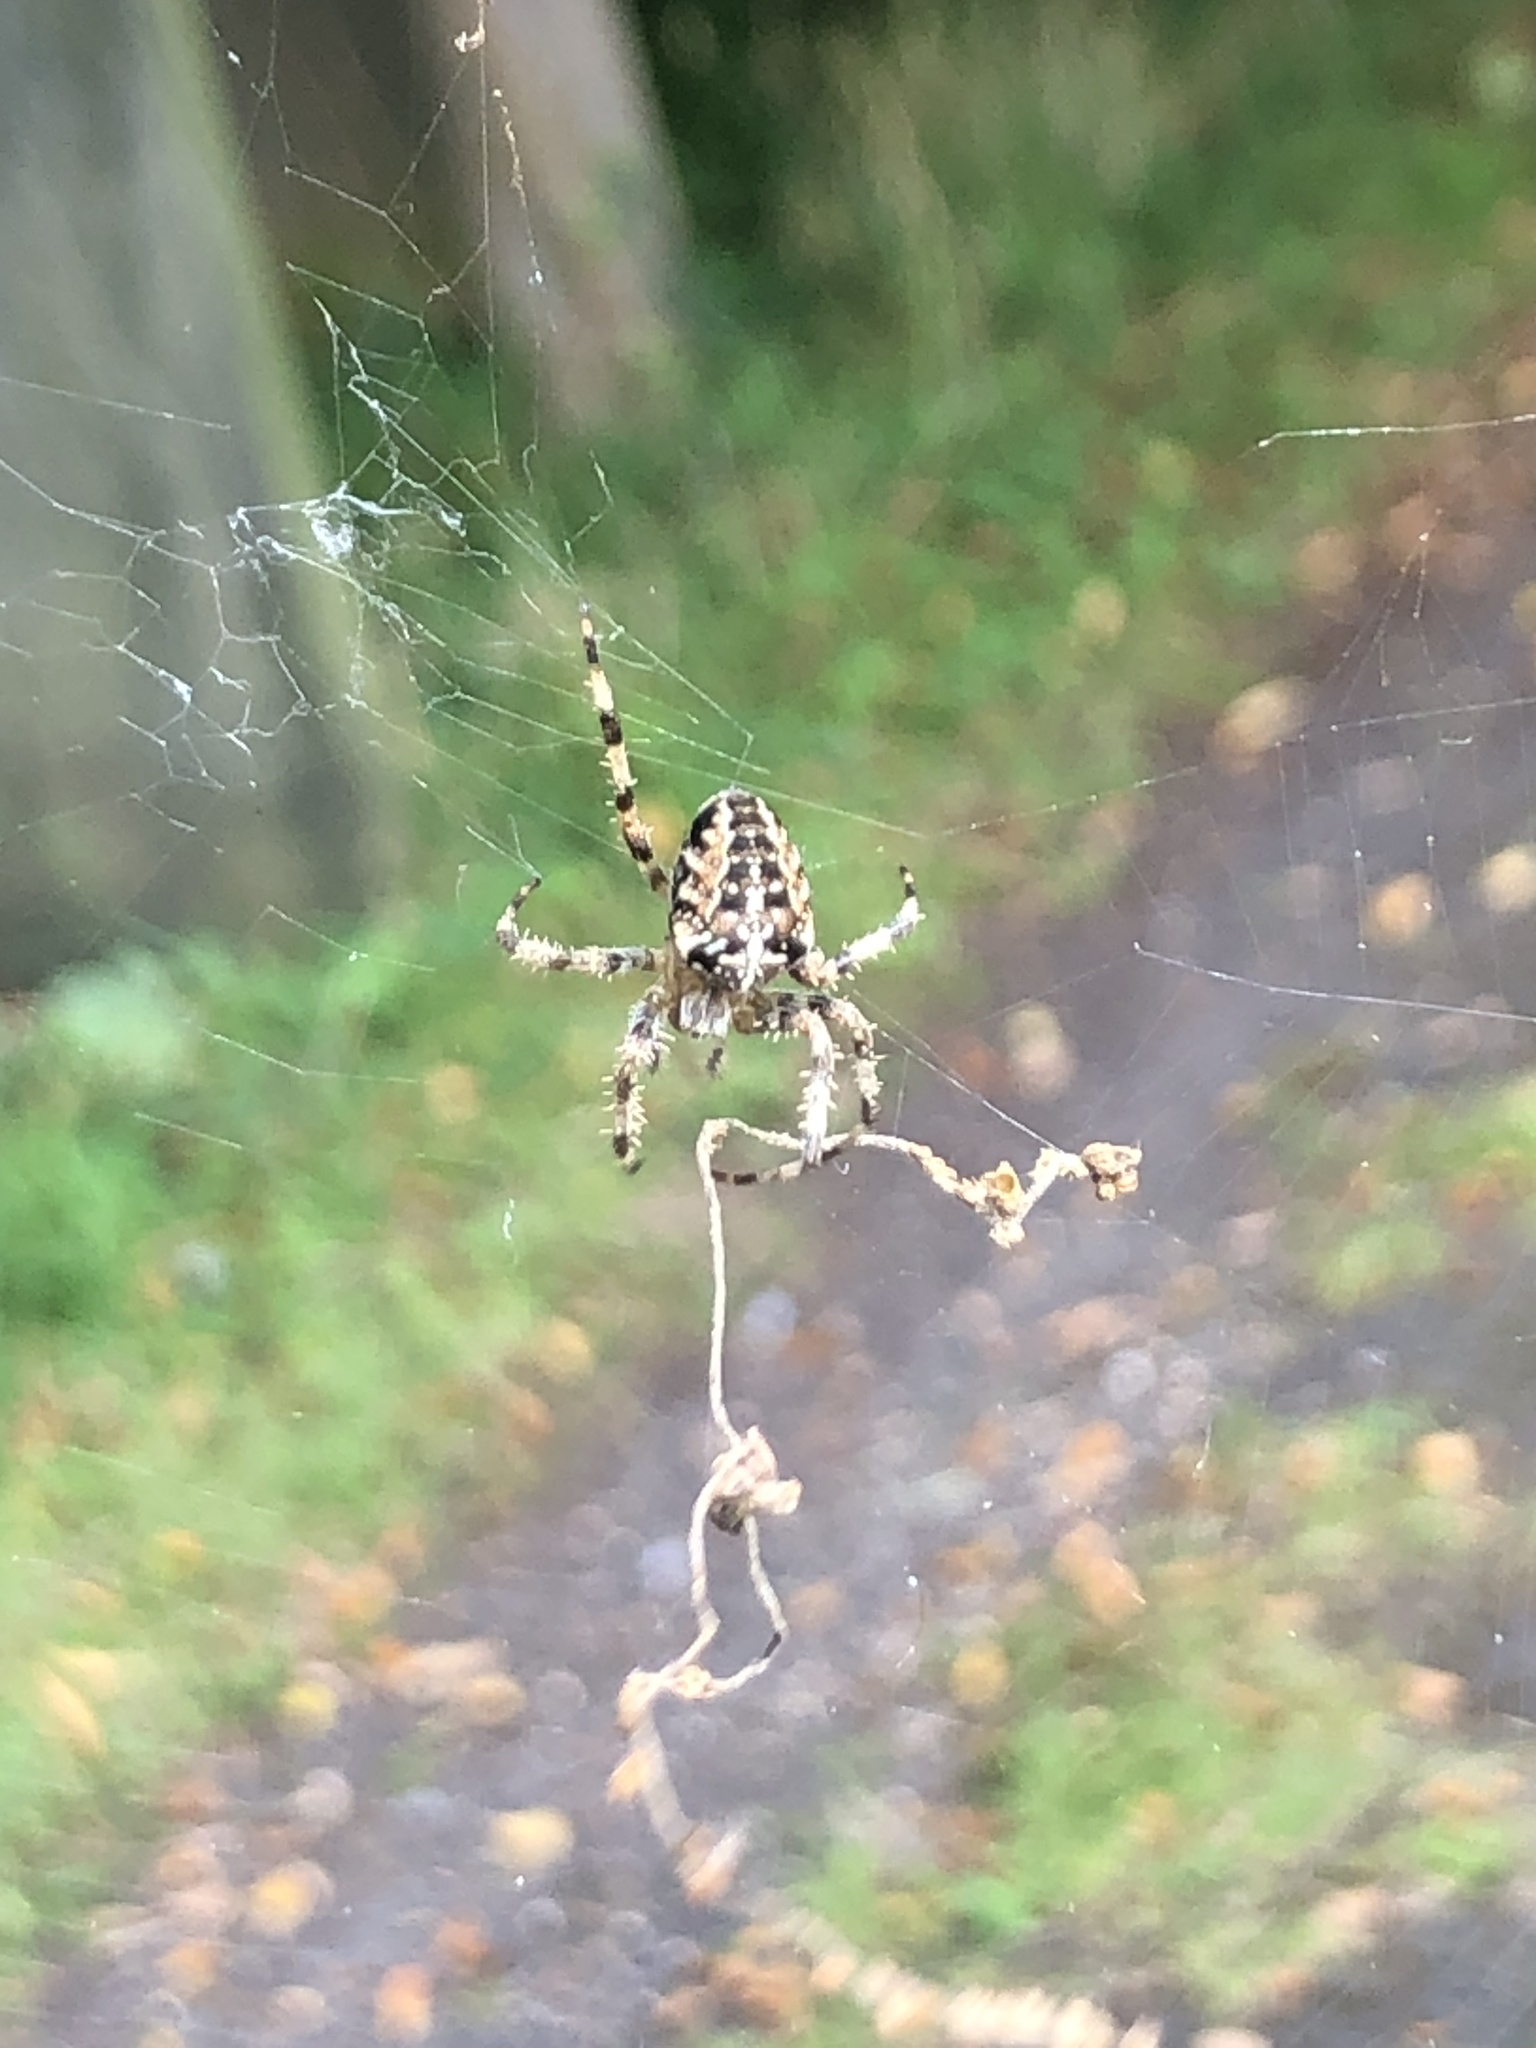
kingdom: Animalia
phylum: Arthropoda
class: Arachnida
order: Araneae
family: Araneidae
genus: Araneus
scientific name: Araneus diadematus
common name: Cross orbweaver
